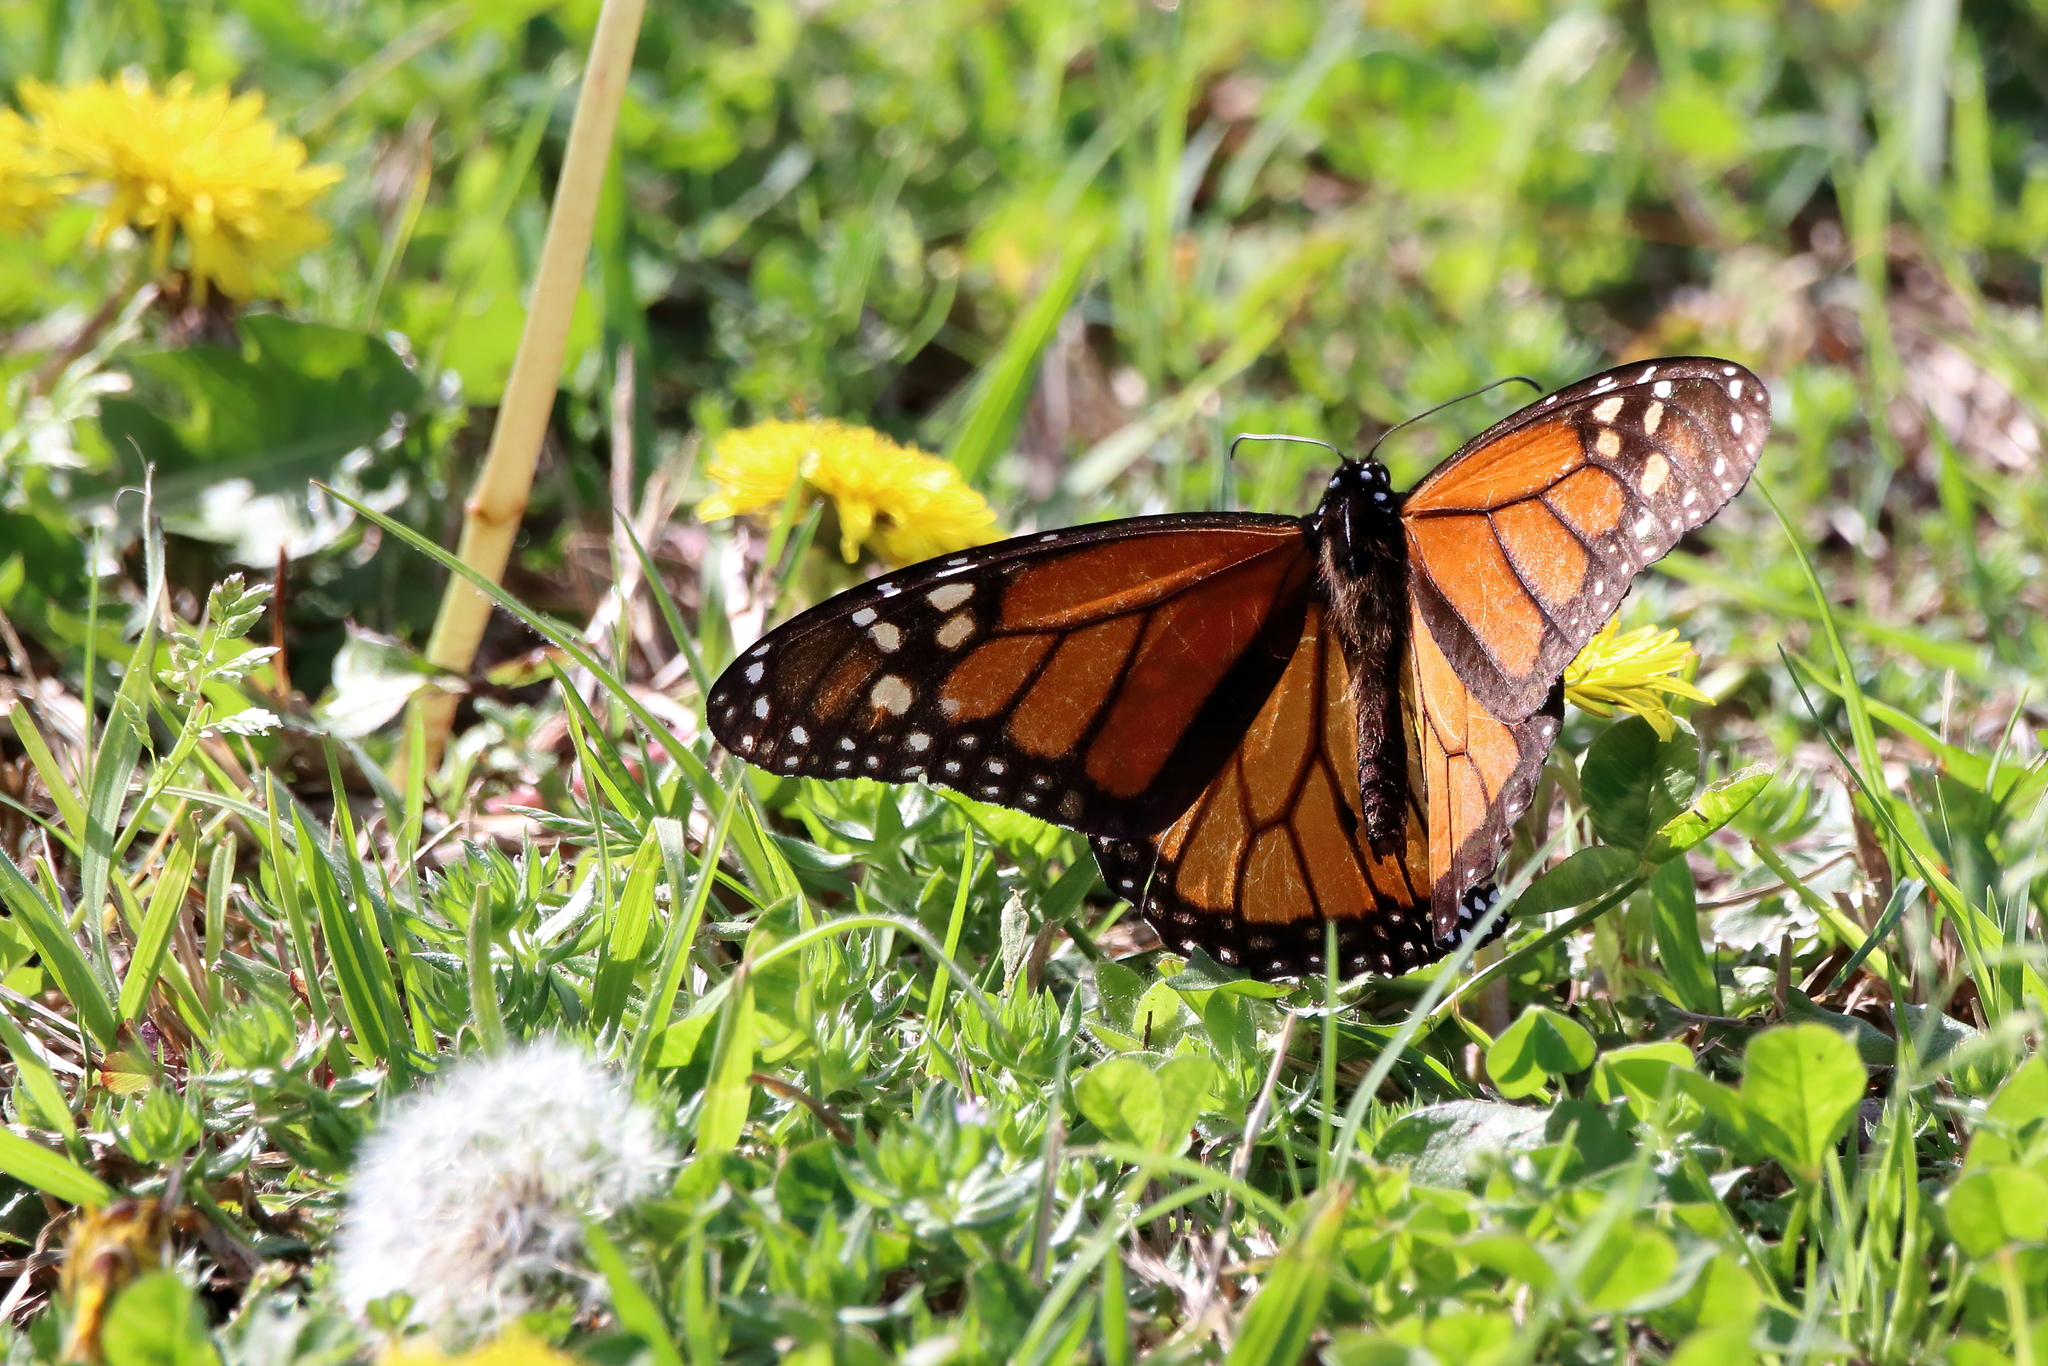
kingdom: Animalia
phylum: Arthropoda
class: Insecta
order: Lepidoptera
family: Nymphalidae
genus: Danaus
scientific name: Danaus plexippus
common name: Monarch
